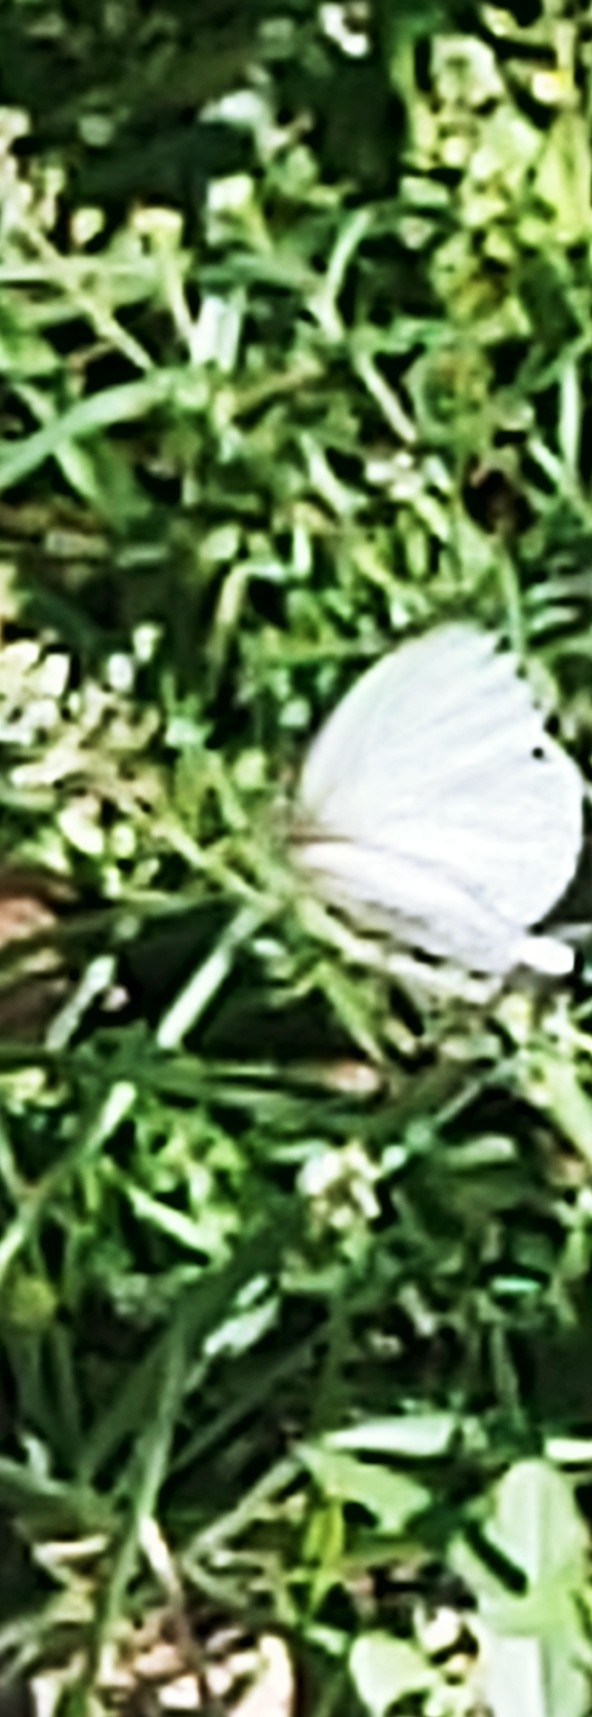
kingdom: Animalia
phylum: Arthropoda
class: Insecta
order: Lepidoptera
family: Pieridae
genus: Ascia
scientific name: Ascia monuste
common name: Great southern white
